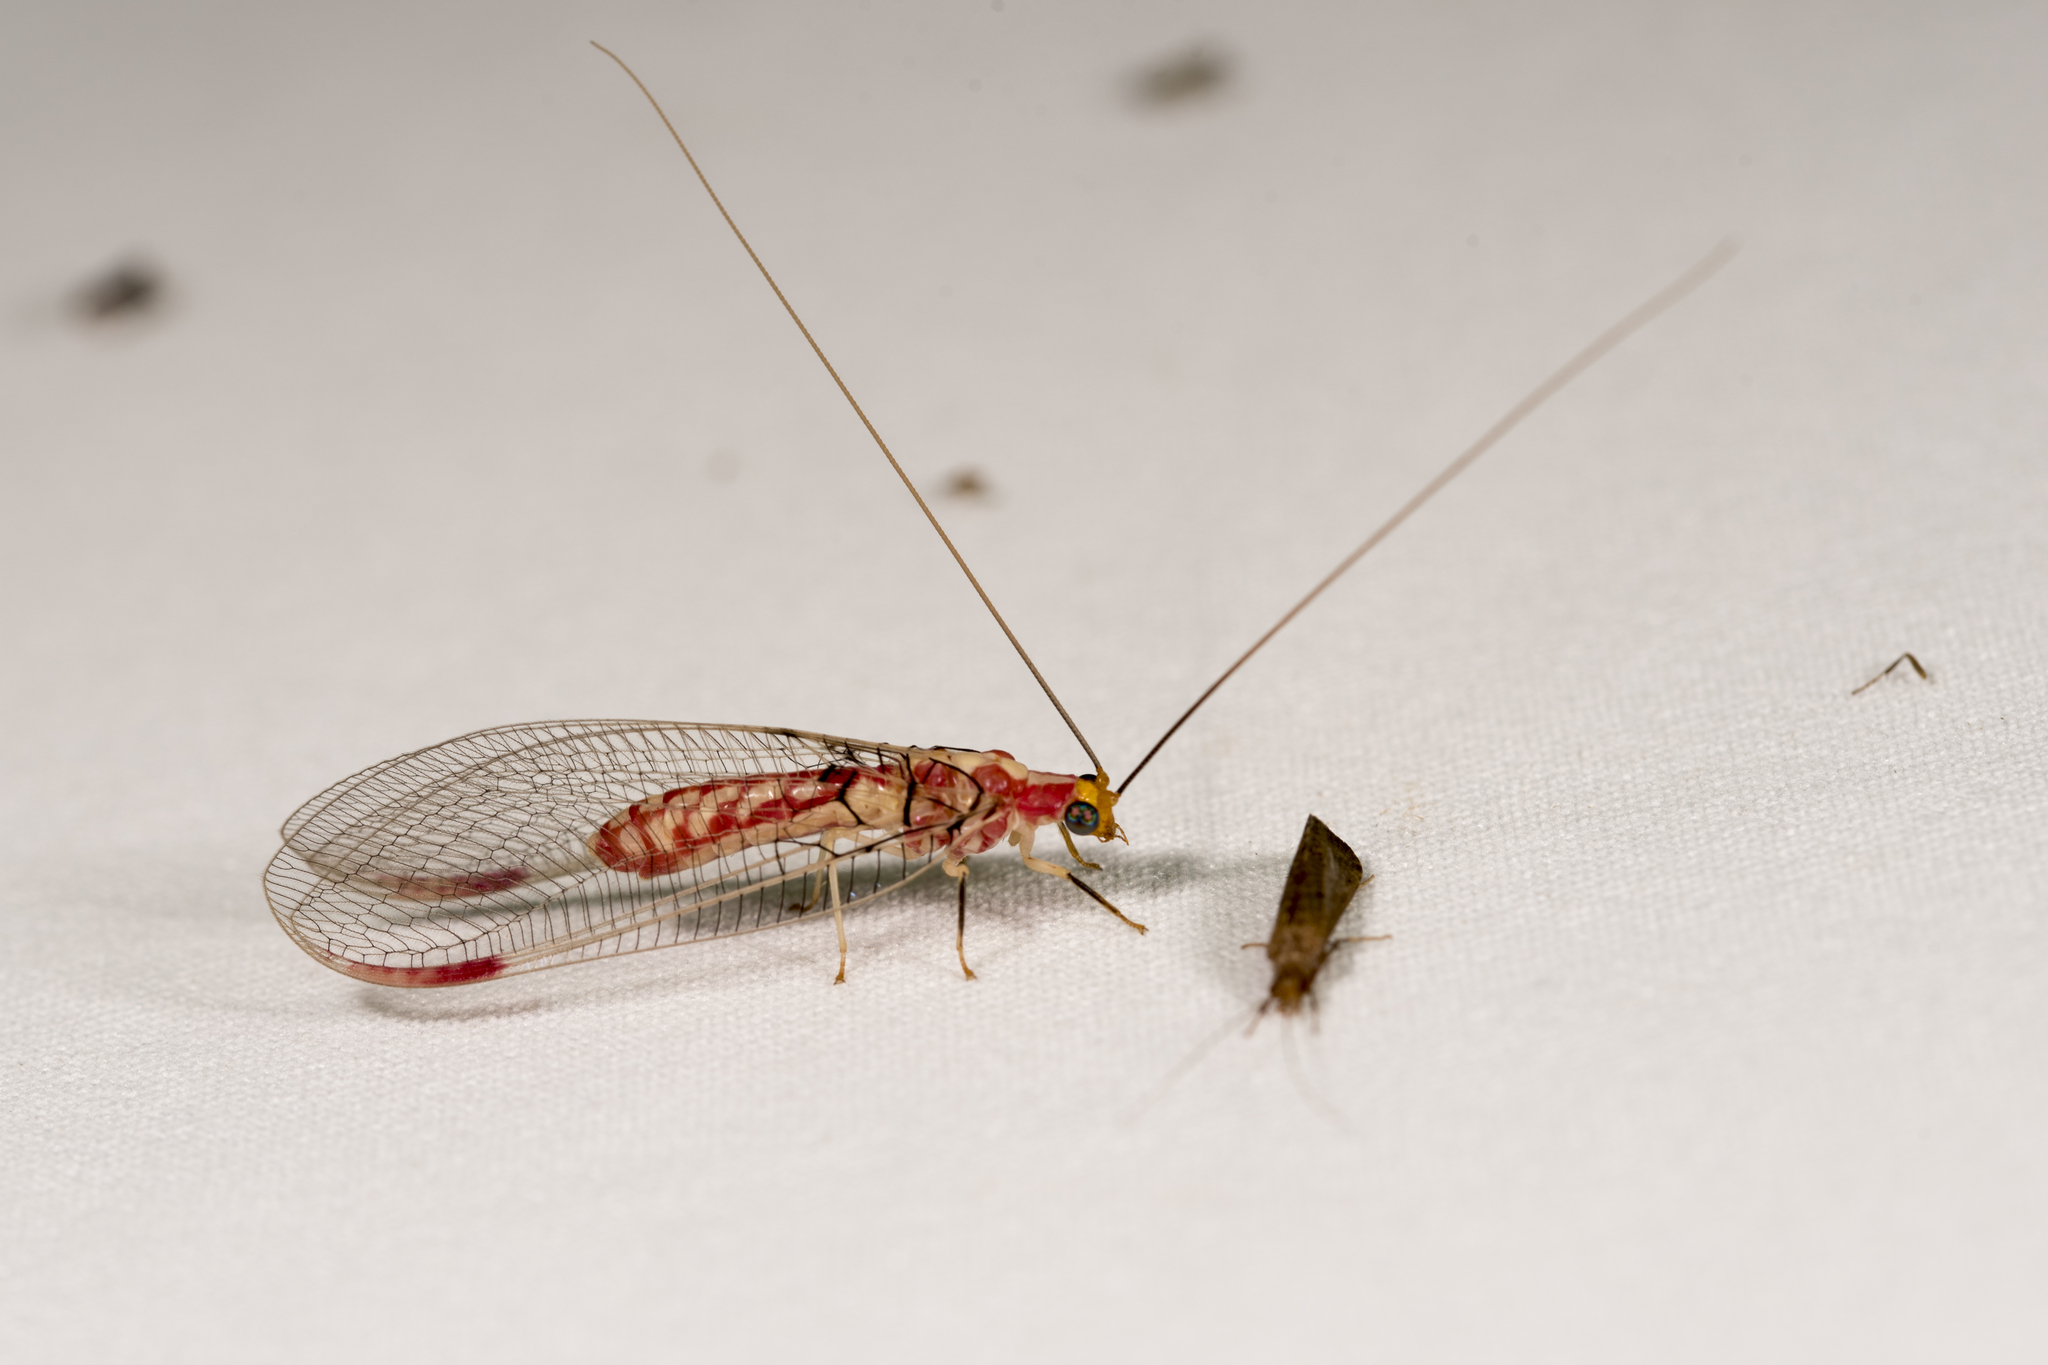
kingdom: Animalia
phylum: Arthropoda
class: Insecta
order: Neuroptera
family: Chrysopidae
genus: Italochrysa
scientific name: Italochrysa uchidae
